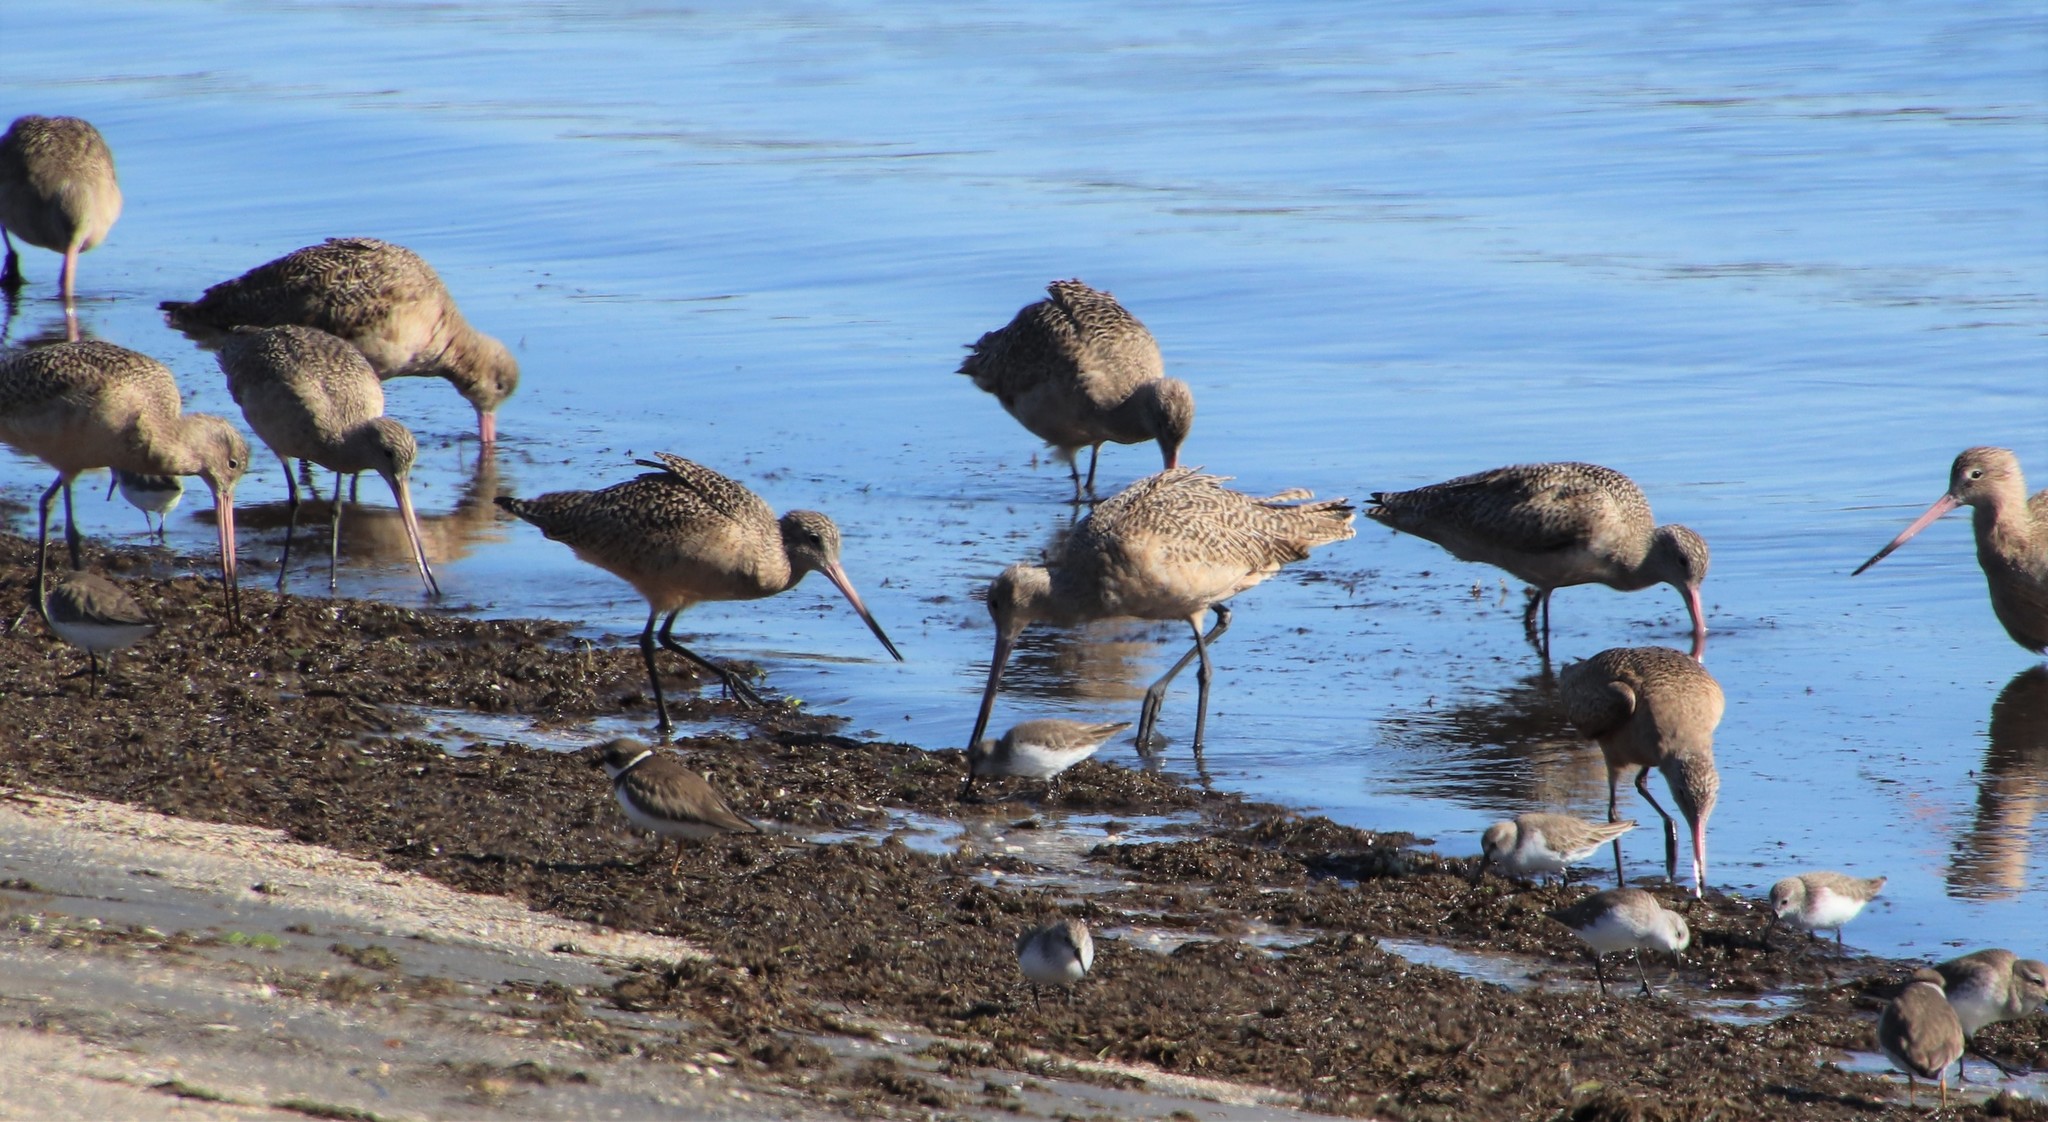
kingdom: Animalia
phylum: Chordata
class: Aves
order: Charadriiformes
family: Scolopacidae
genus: Limosa
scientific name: Limosa fedoa
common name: Marbled godwit
